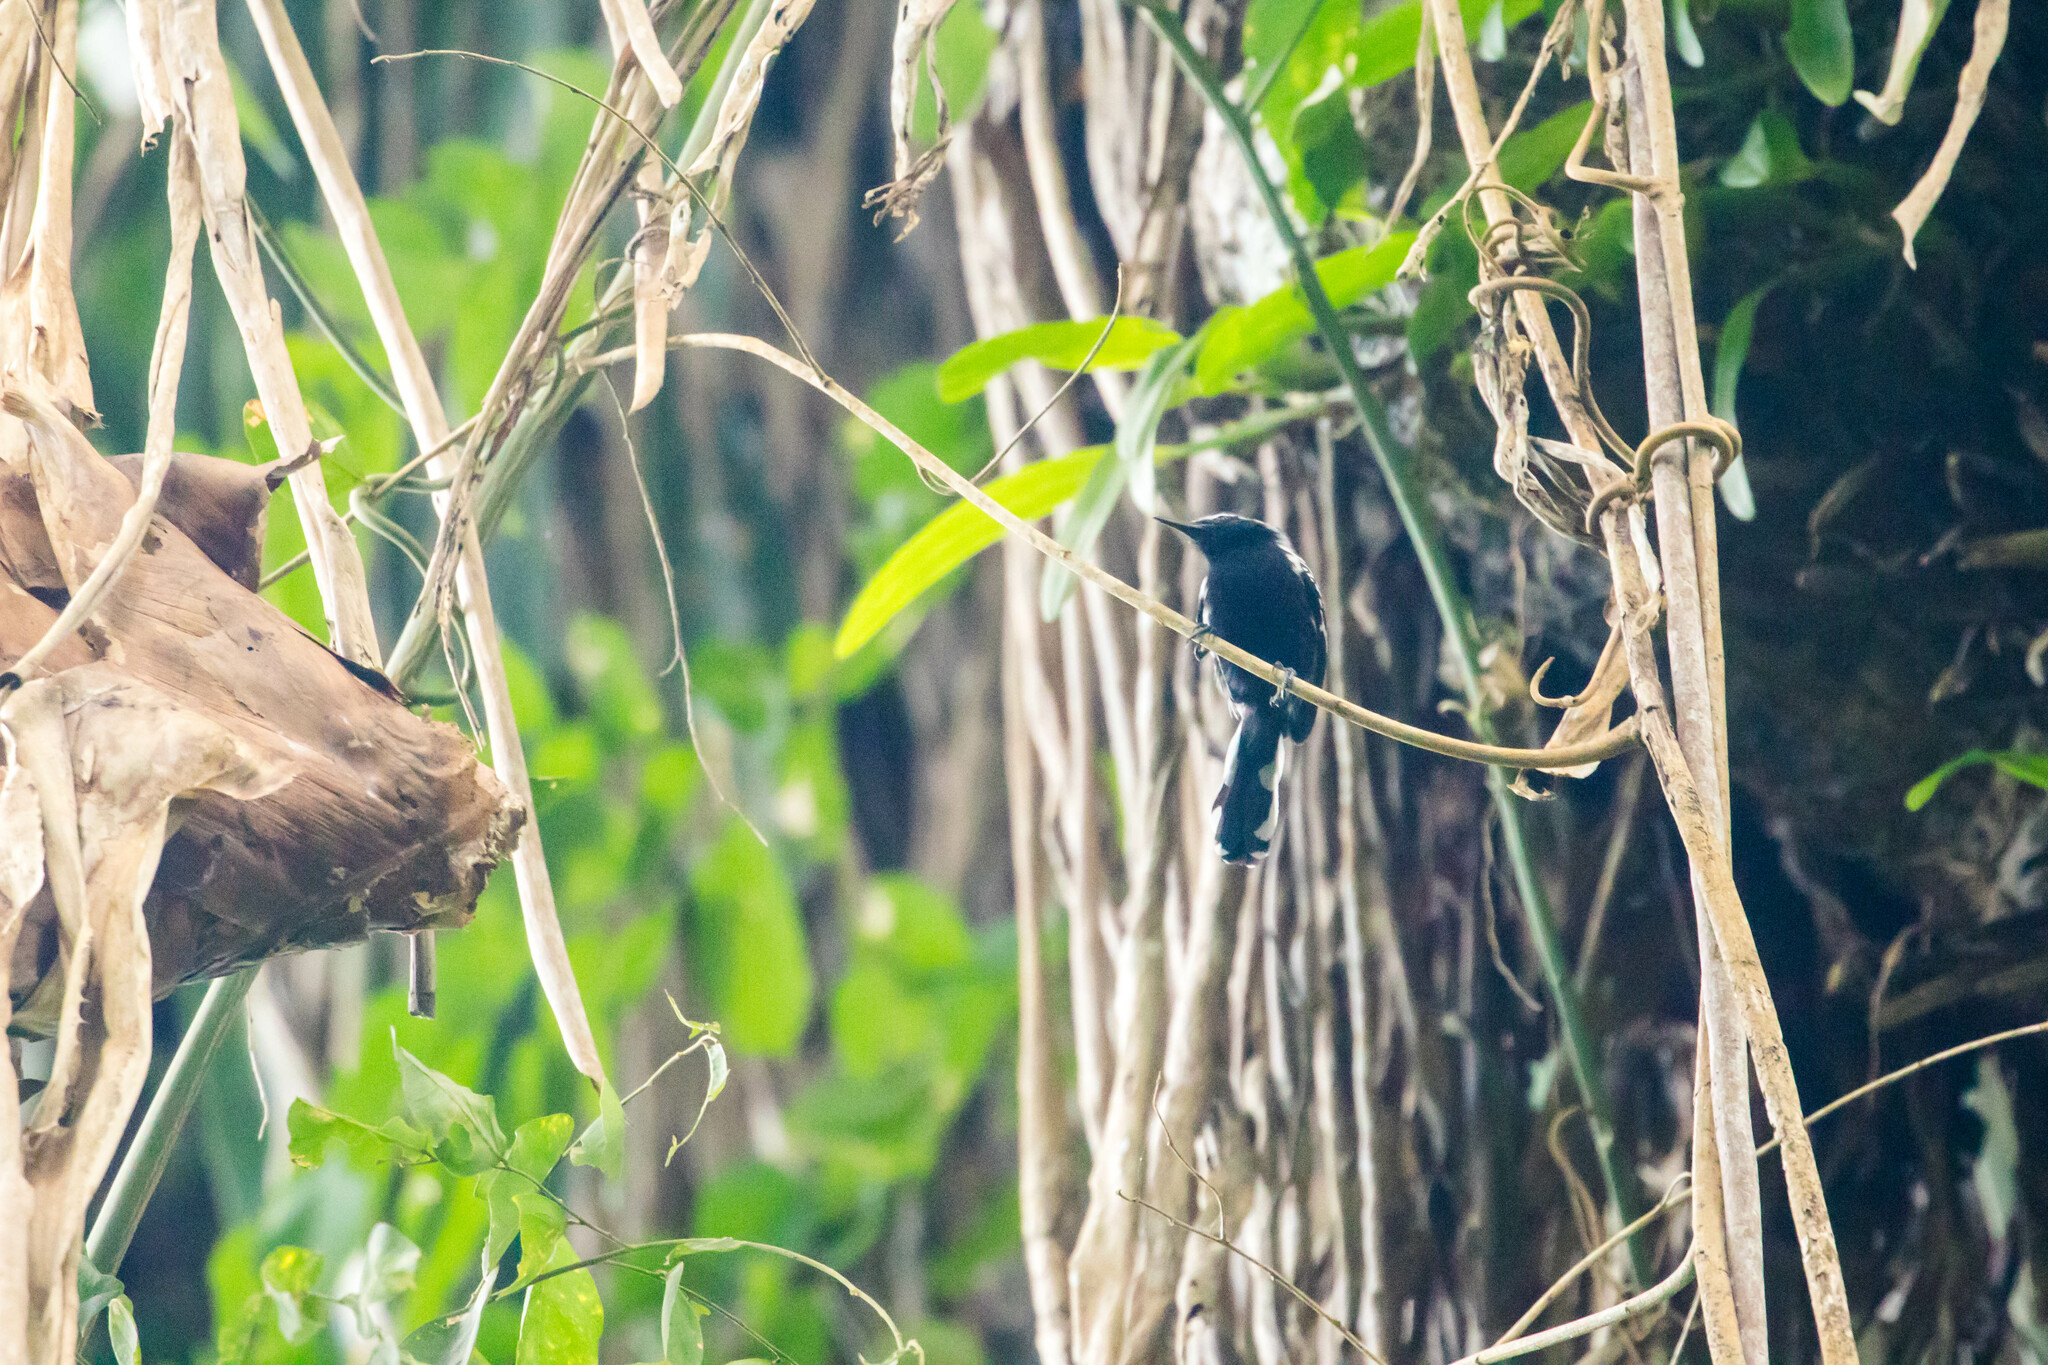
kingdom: Animalia
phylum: Chordata
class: Aves
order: Passeriformes
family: Thamnophilidae
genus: Formicivora
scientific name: Formicivora intermedia
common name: Northern white-fringed antwren
